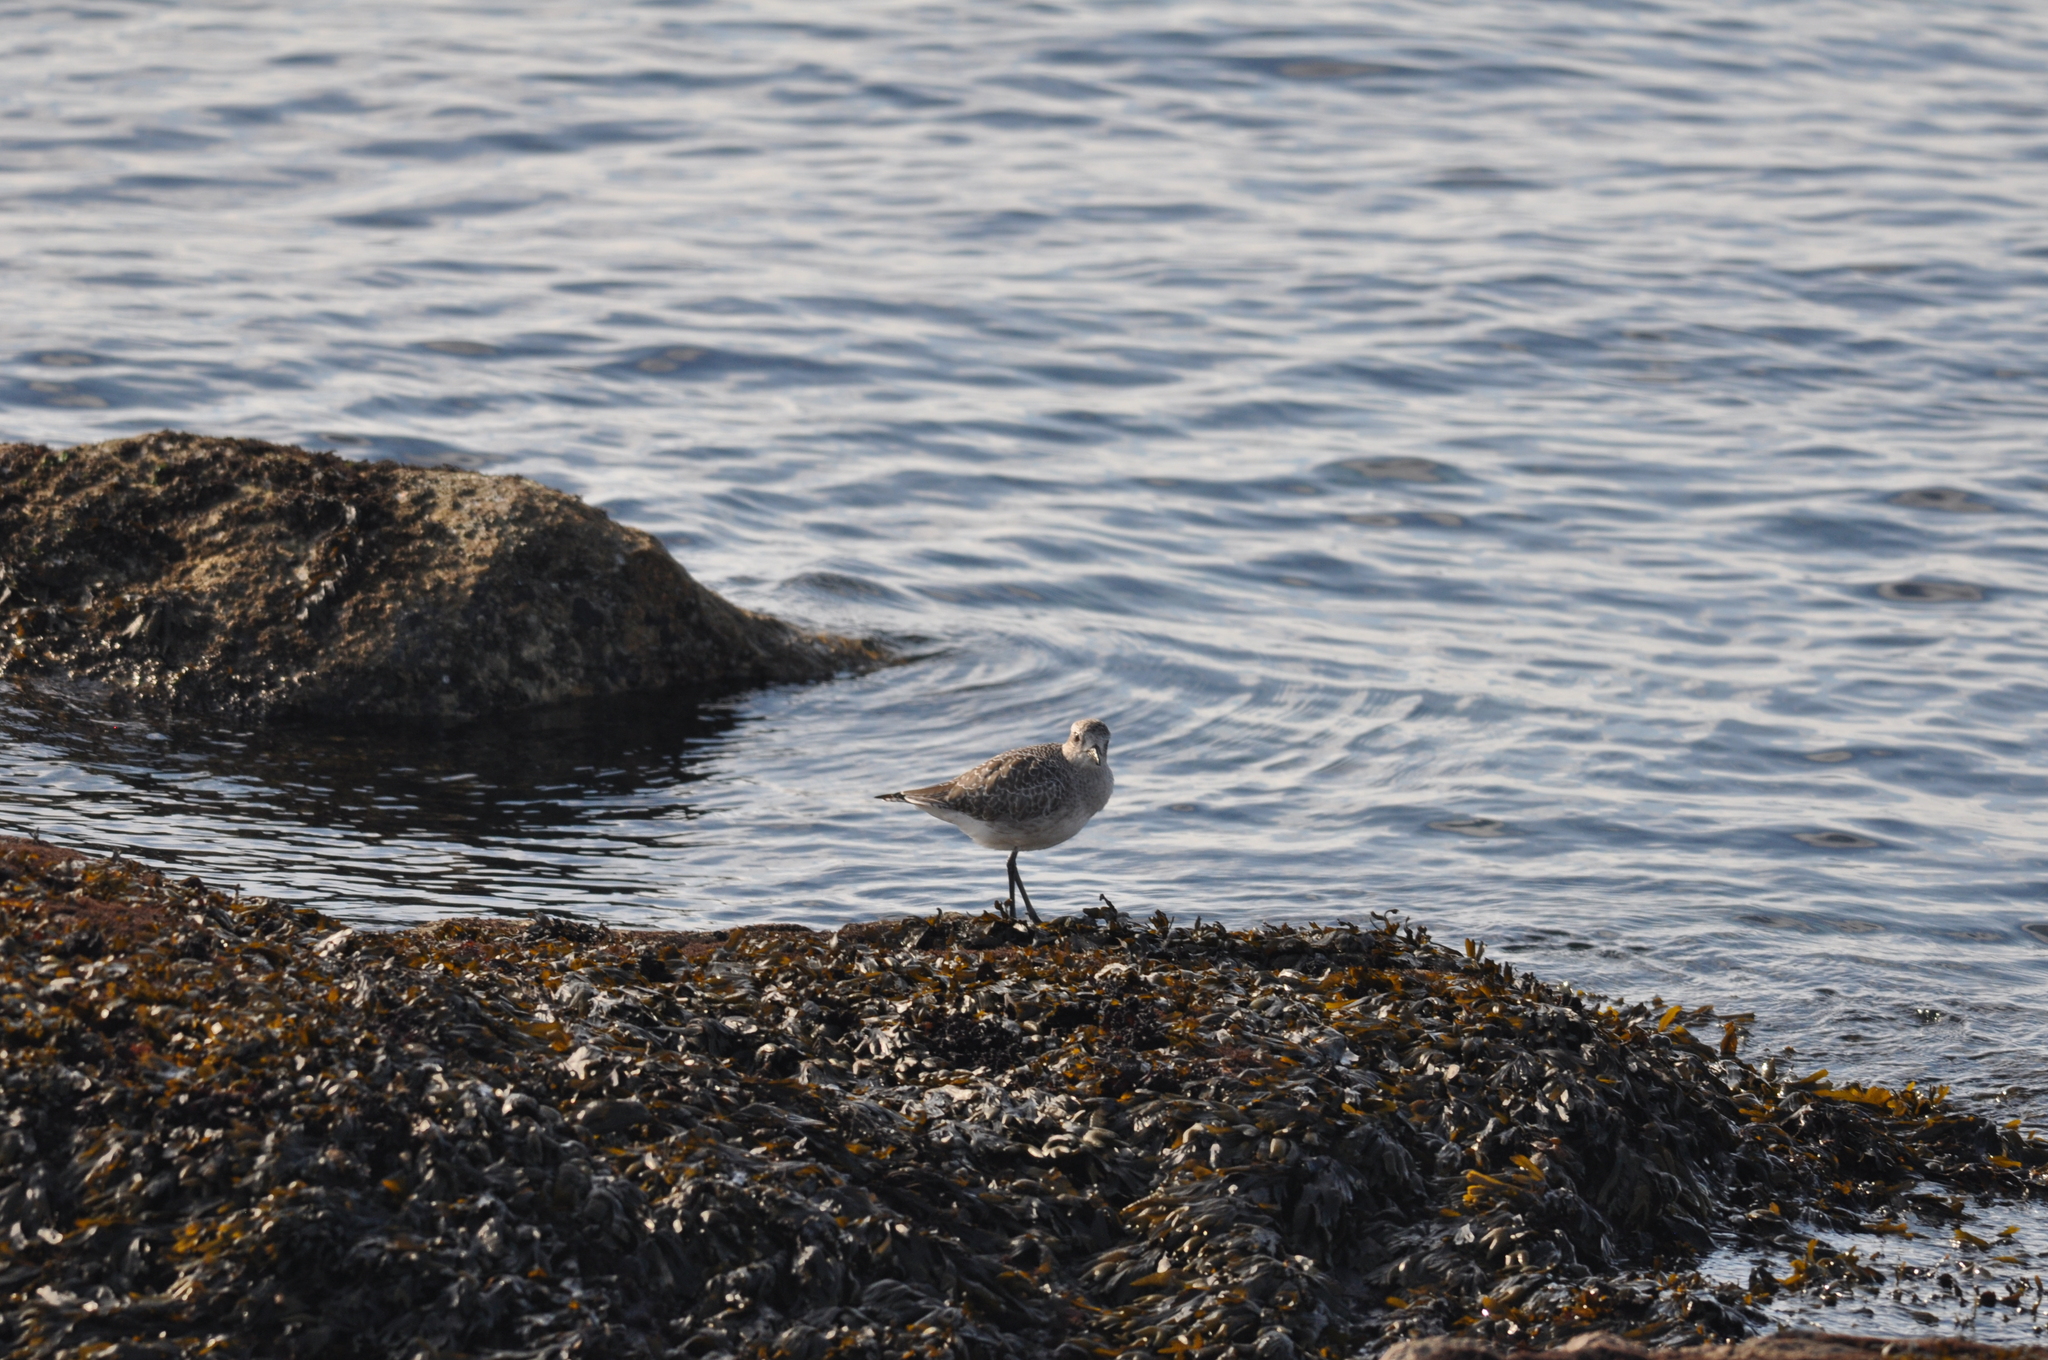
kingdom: Animalia
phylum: Chordata
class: Aves
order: Charadriiformes
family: Charadriidae
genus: Pluvialis
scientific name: Pluvialis squatarola
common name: Grey plover
